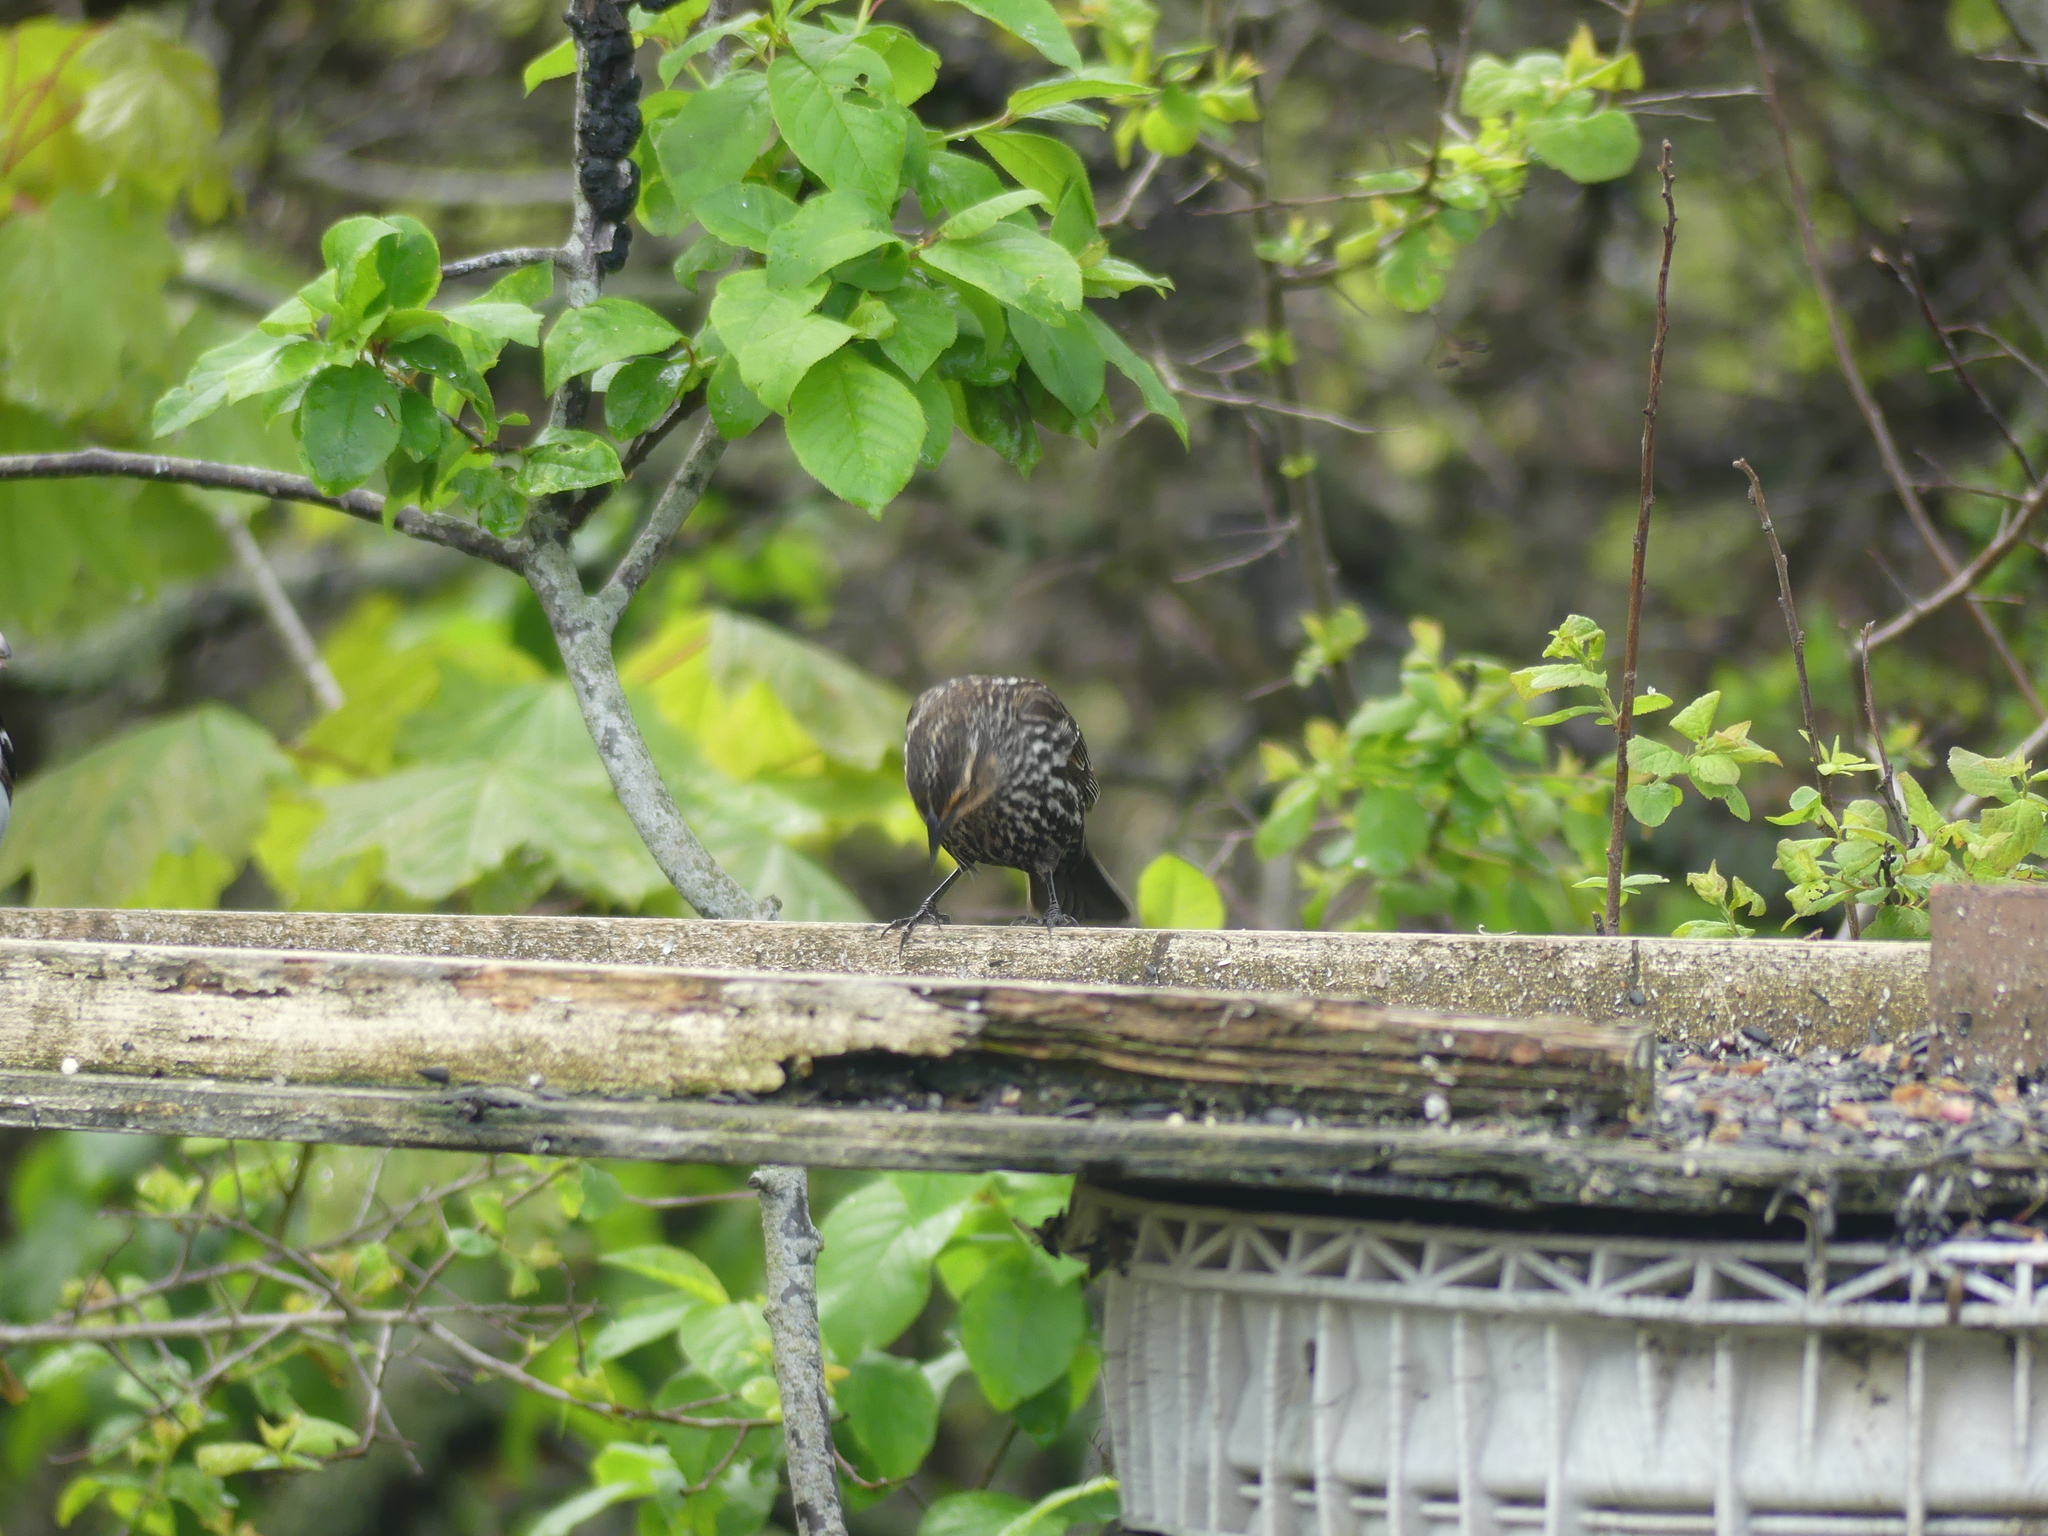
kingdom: Animalia
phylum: Chordata
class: Aves
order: Passeriformes
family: Icteridae
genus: Agelaius
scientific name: Agelaius phoeniceus
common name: Red-winged blackbird
